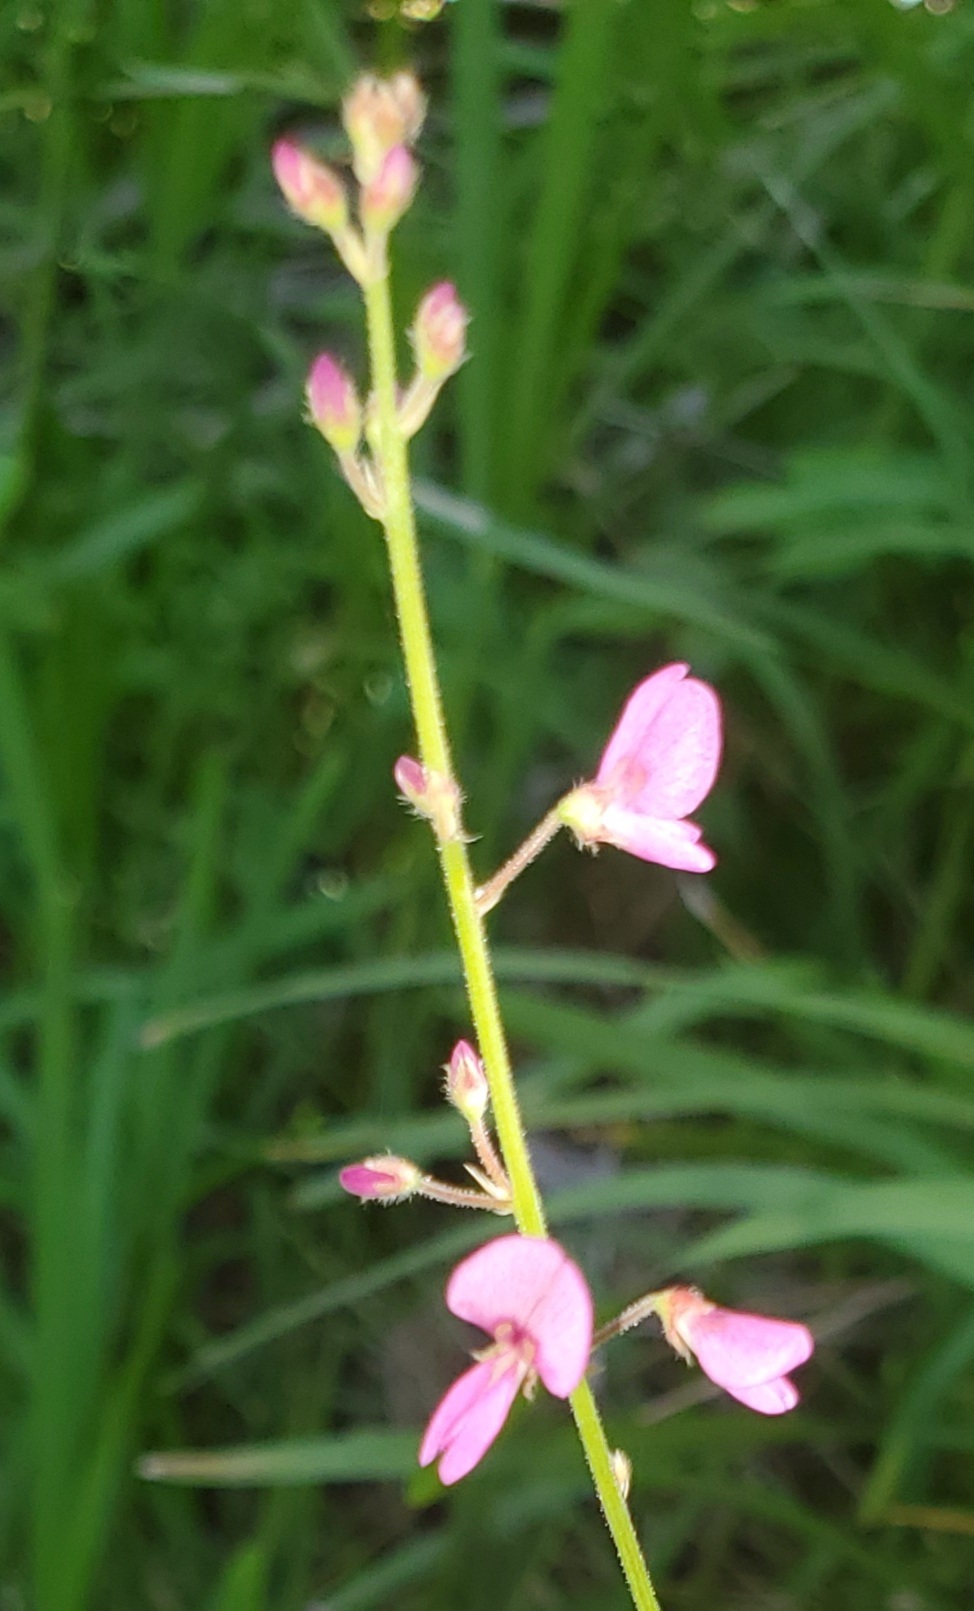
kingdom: Plantae
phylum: Tracheophyta
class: Magnoliopsida
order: Fabales
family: Fabaceae
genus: Desmodium
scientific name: Desmodium incanum
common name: Tickclover
